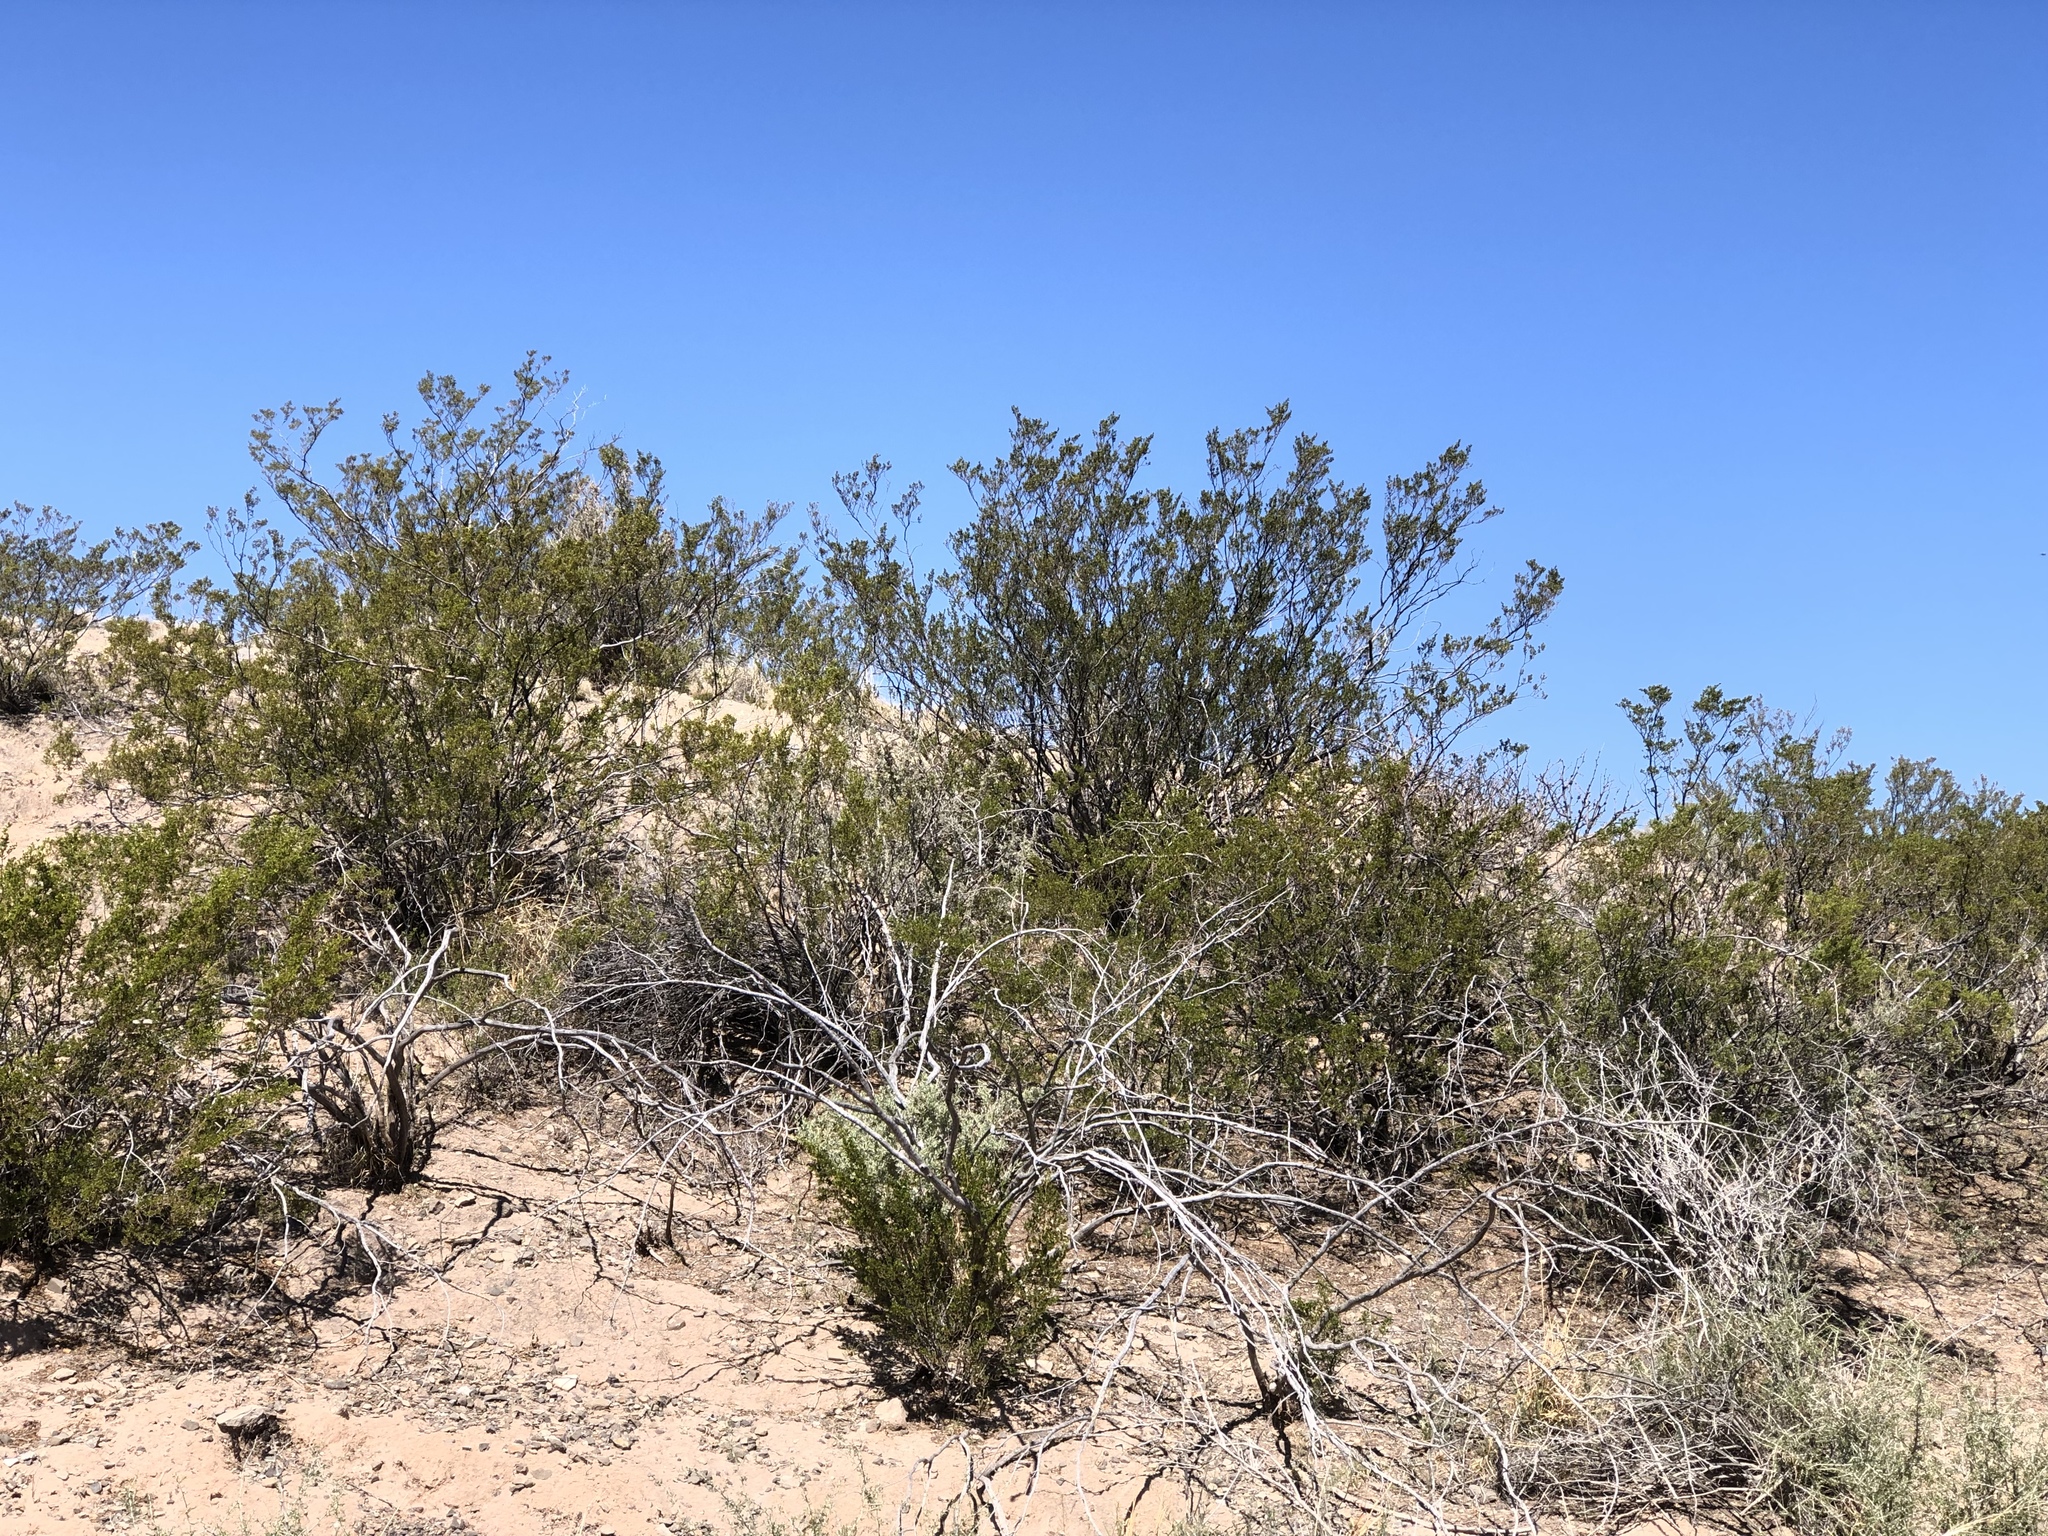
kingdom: Plantae
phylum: Tracheophyta
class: Magnoliopsida
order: Zygophyllales
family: Zygophyllaceae
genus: Larrea
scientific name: Larrea tridentata
